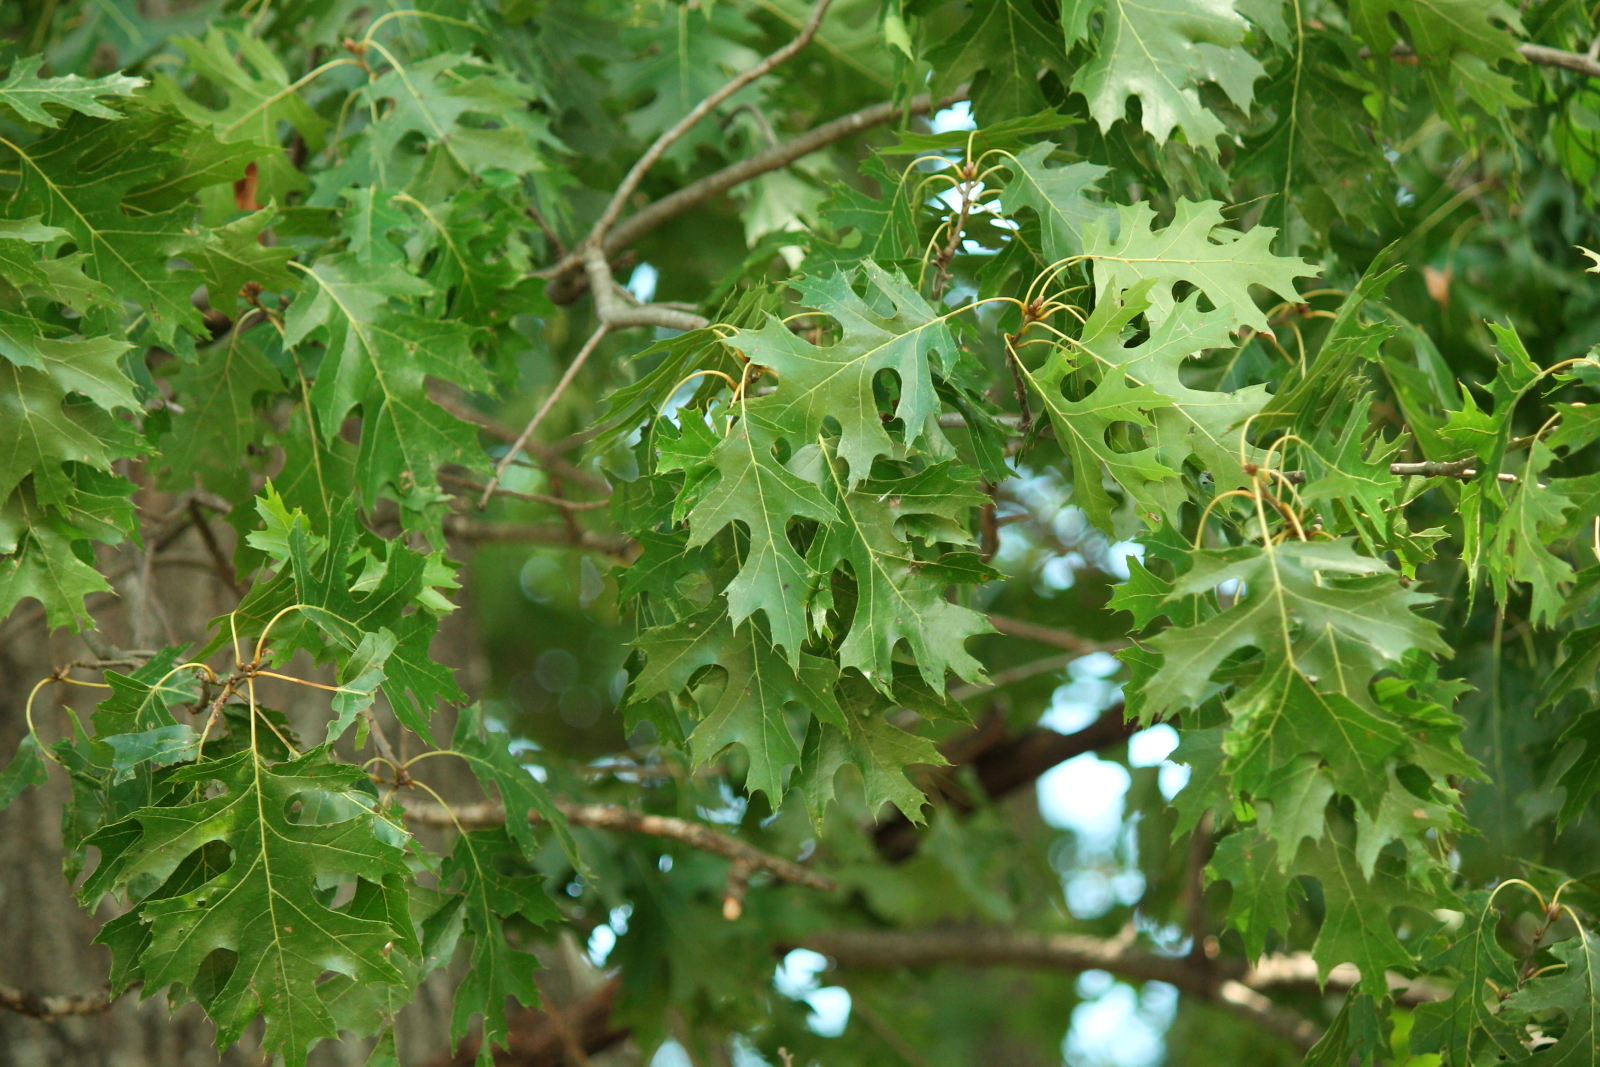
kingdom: Plantae
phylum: Tracheophyta
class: Magnoliopsida
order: Fagales
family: Fagaceae
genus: Quercus
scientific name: Quercus shumardii
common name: Shumard oak
